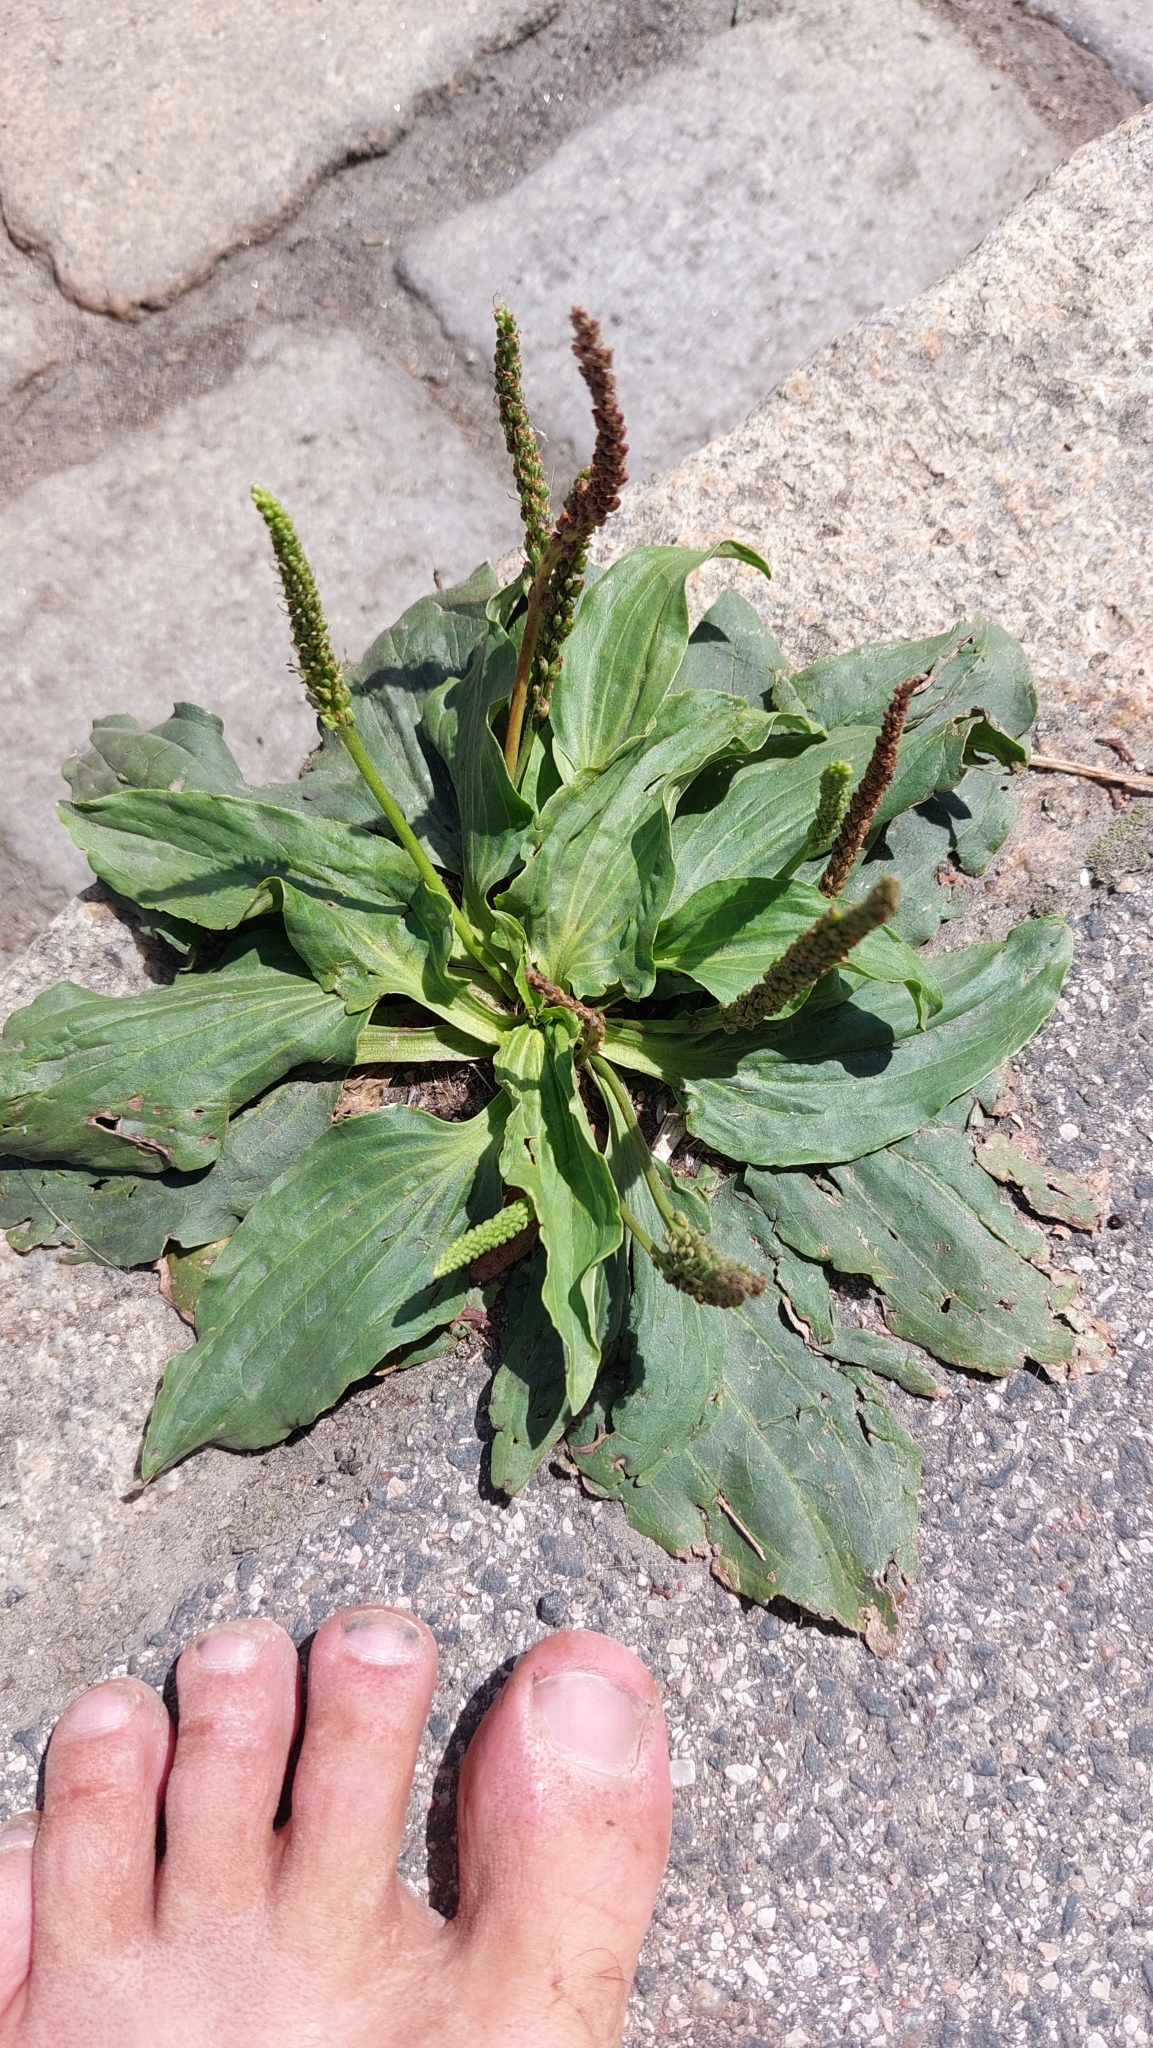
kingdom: Plantae
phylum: Tracheophyta
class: Magnoliopsida
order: Lamiales
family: Plantaginaceae
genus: Plantago
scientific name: Plantago major
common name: Common plantain
